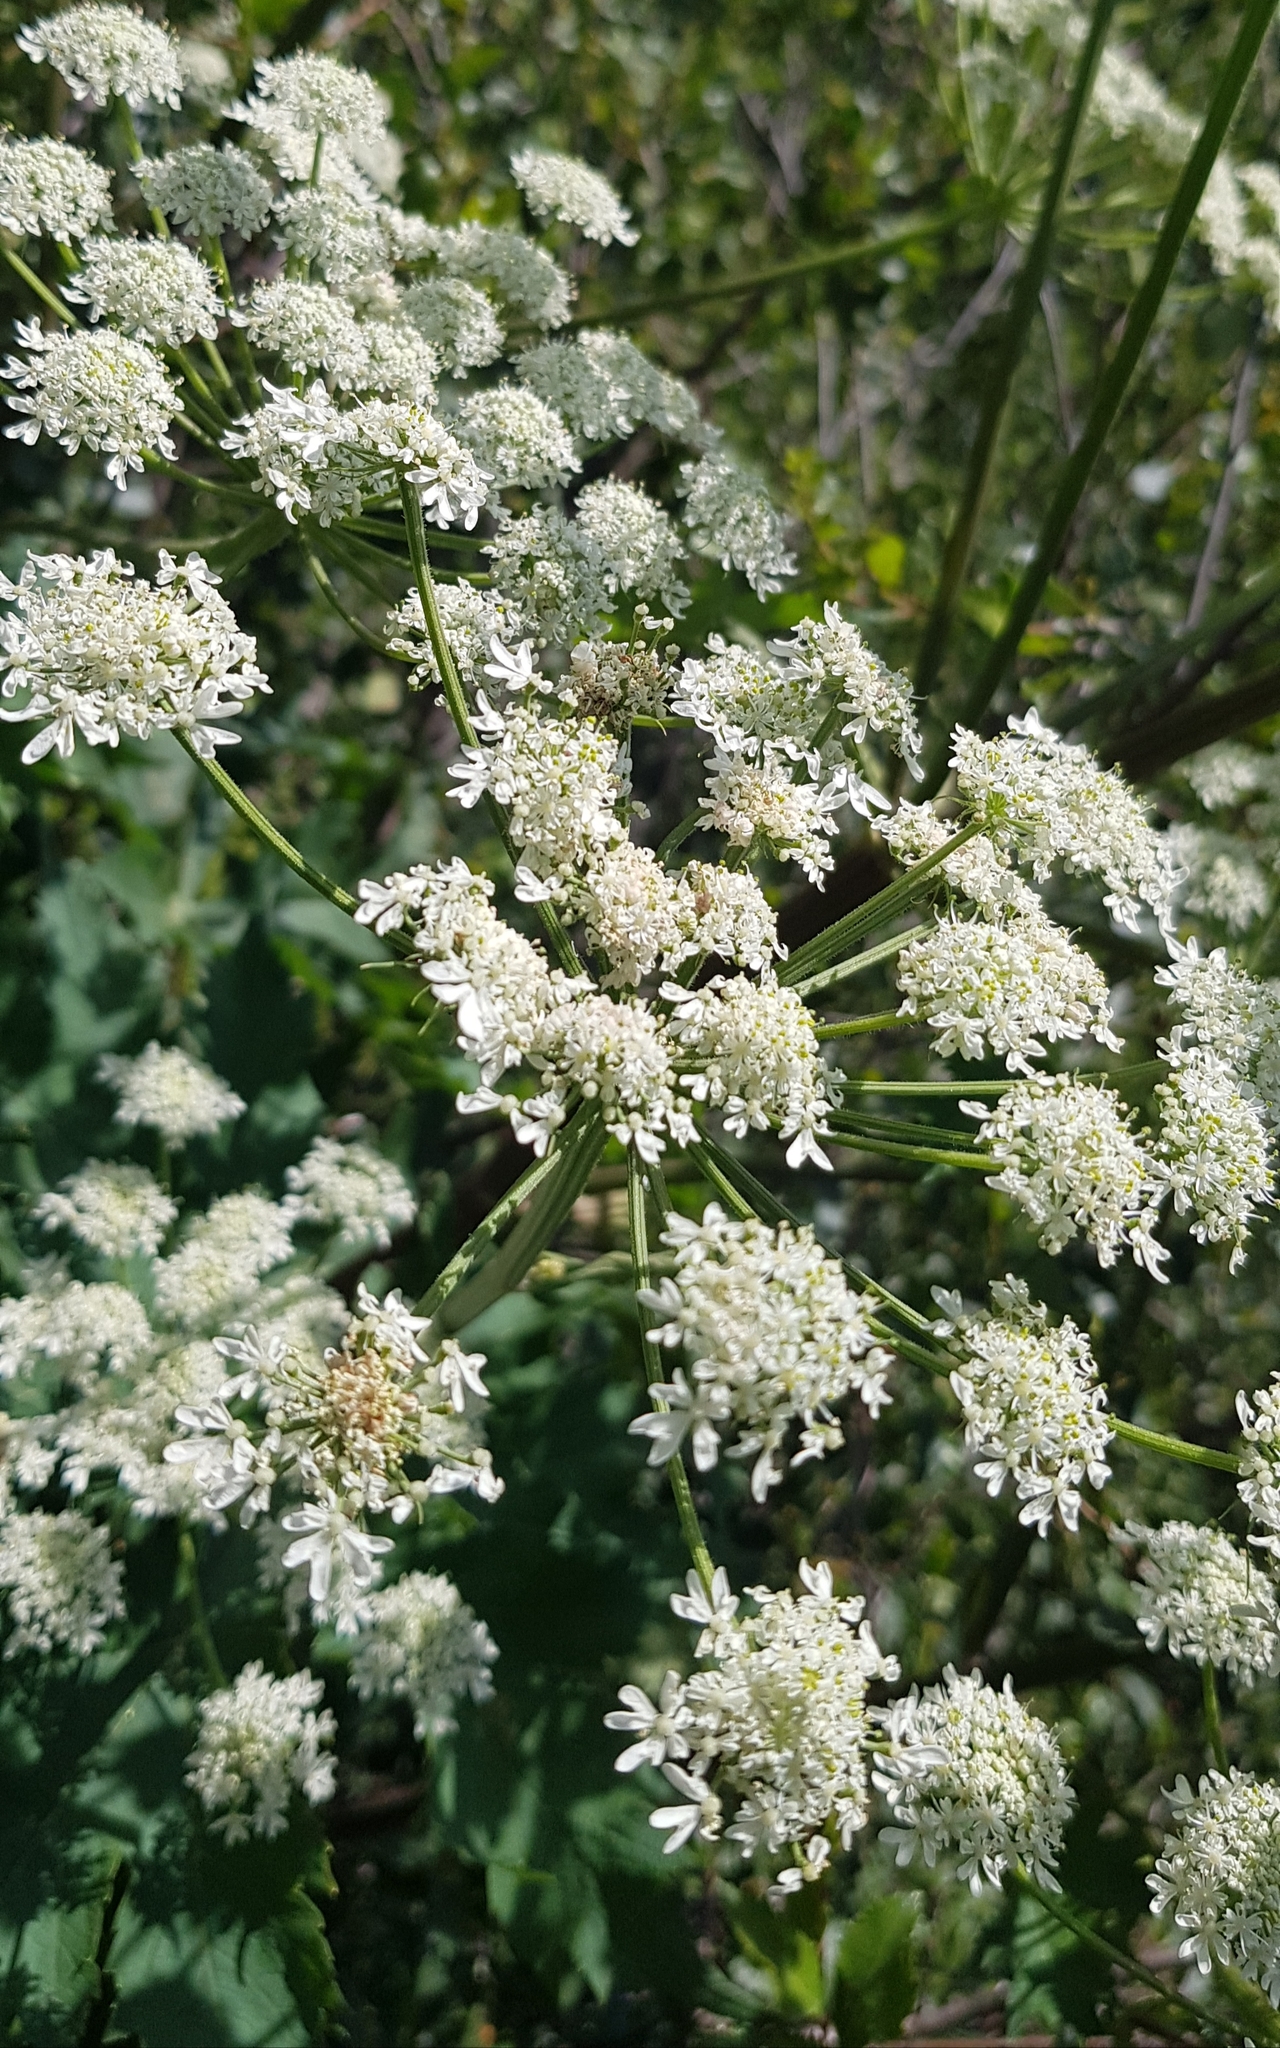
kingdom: Plantae
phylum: Tracheophyta
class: Magnoliopsida
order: Apiales
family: Apiaceae
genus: Heracleum
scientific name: Heracleum dissectum
